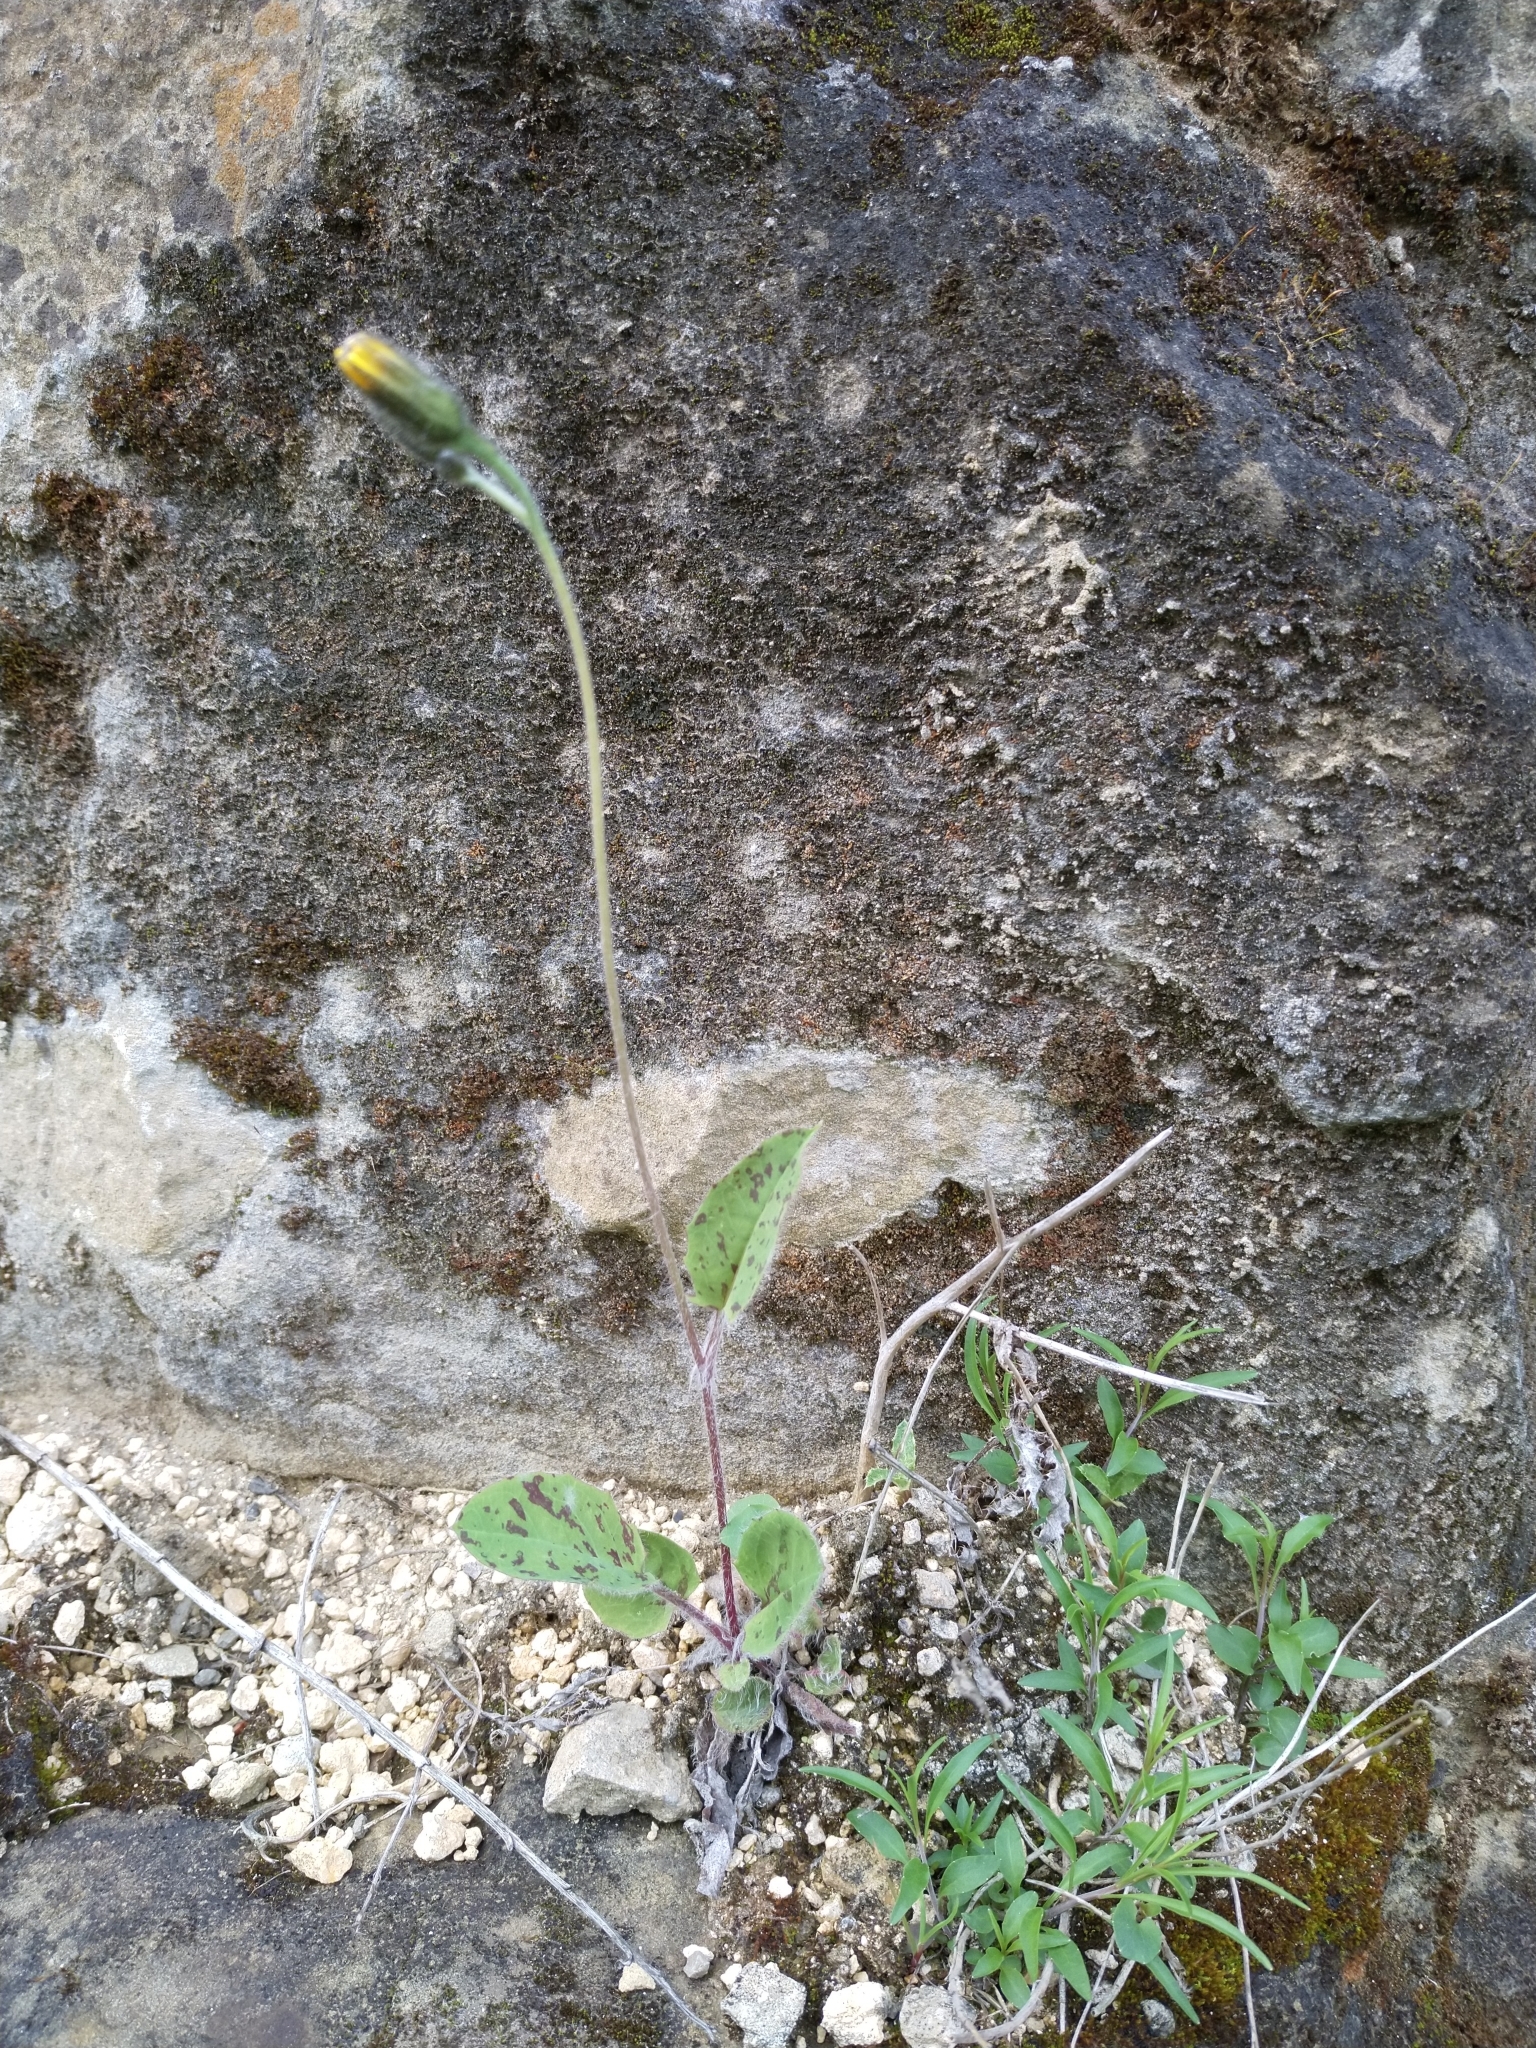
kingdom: Plantae
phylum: Tracheophyta
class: Magnoliopsida
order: Asterales
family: Asteraceae
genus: Hieracium
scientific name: Hieracium murorum
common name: Wall hawkweed
